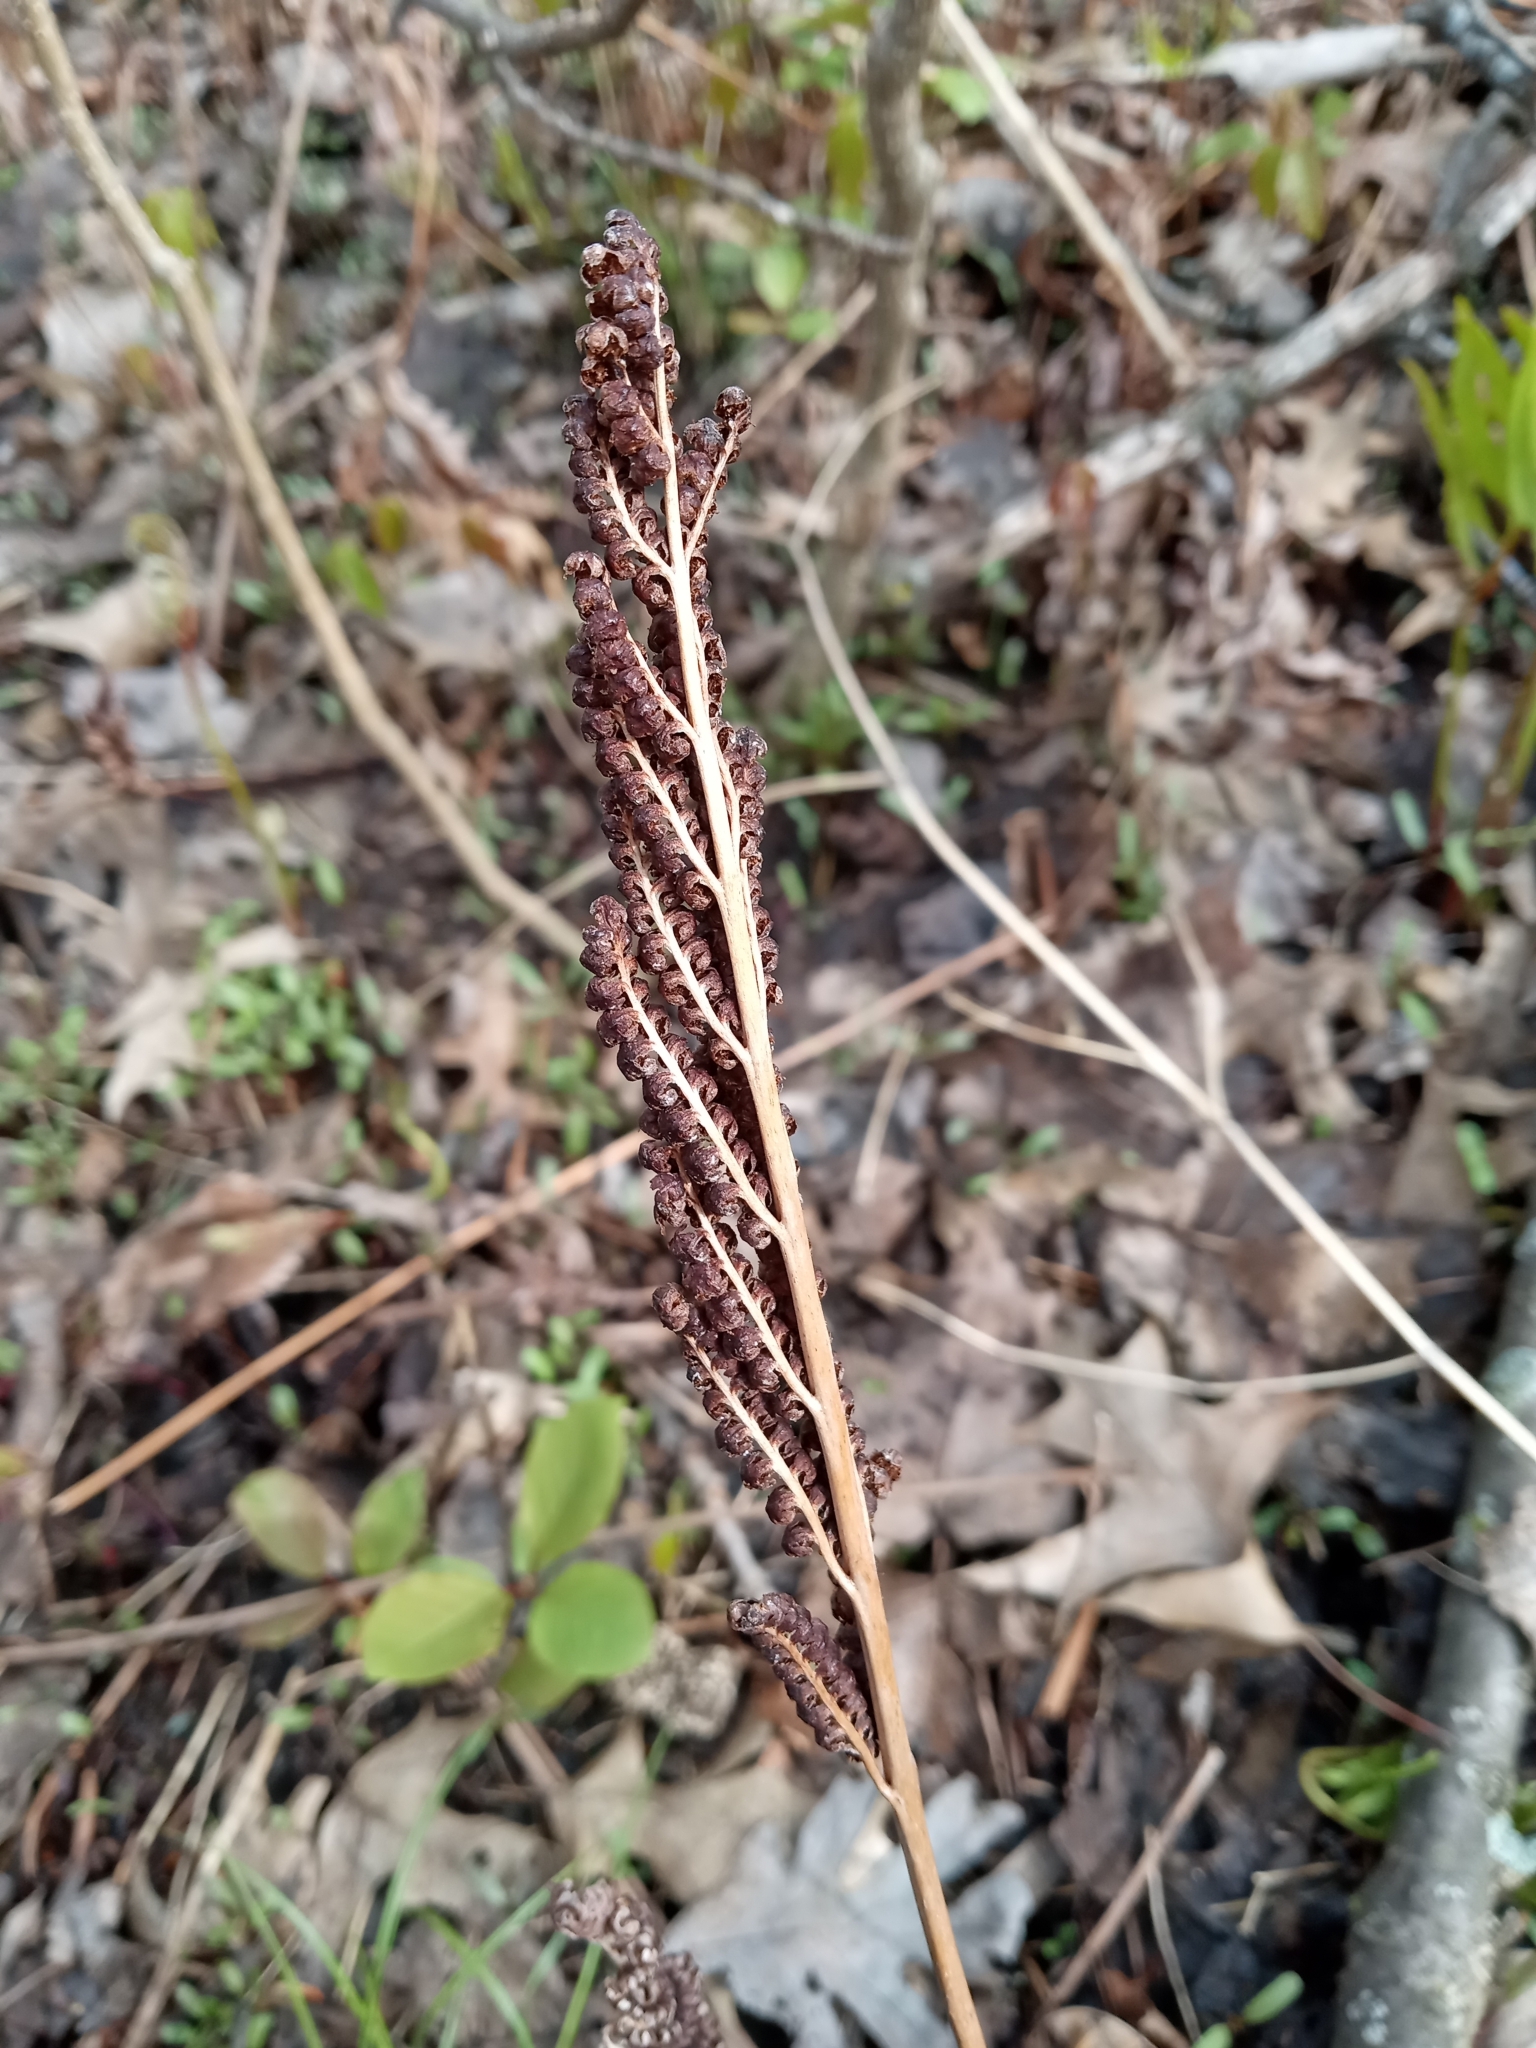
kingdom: Plantae
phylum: Tracheophyta
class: Polypodiopsida
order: Polypodiales
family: Onocleaceae
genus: Onoclea
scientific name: Onoclea sensibilis
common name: Sensitive fern
